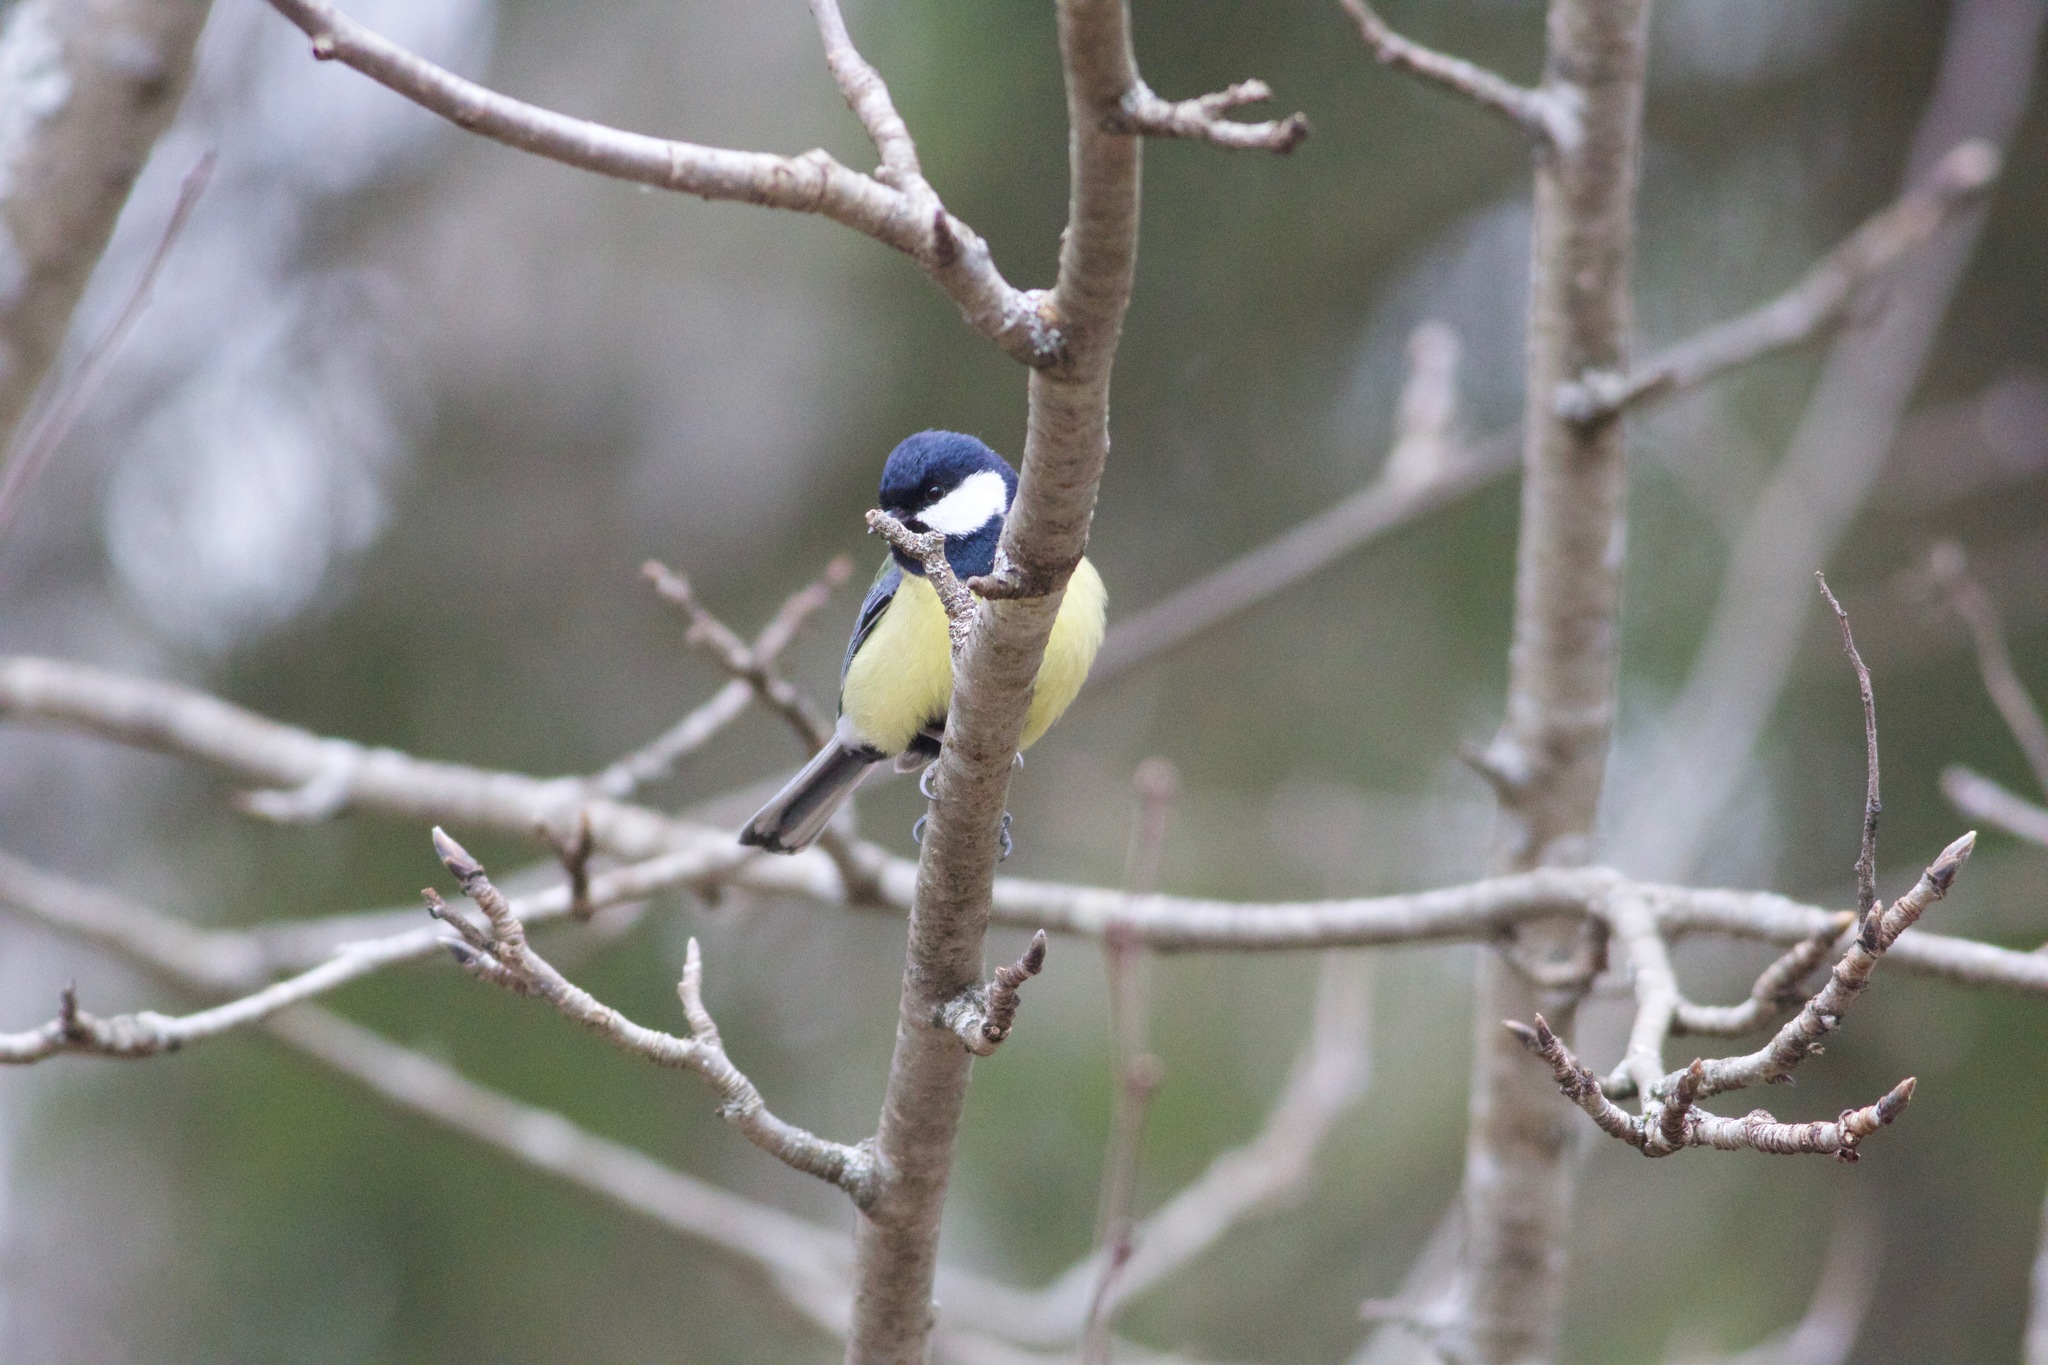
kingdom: Animalia
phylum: Chordata
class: Aves
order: Passeriformes
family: Paridae
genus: Parus
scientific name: Parus major
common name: Great tit
